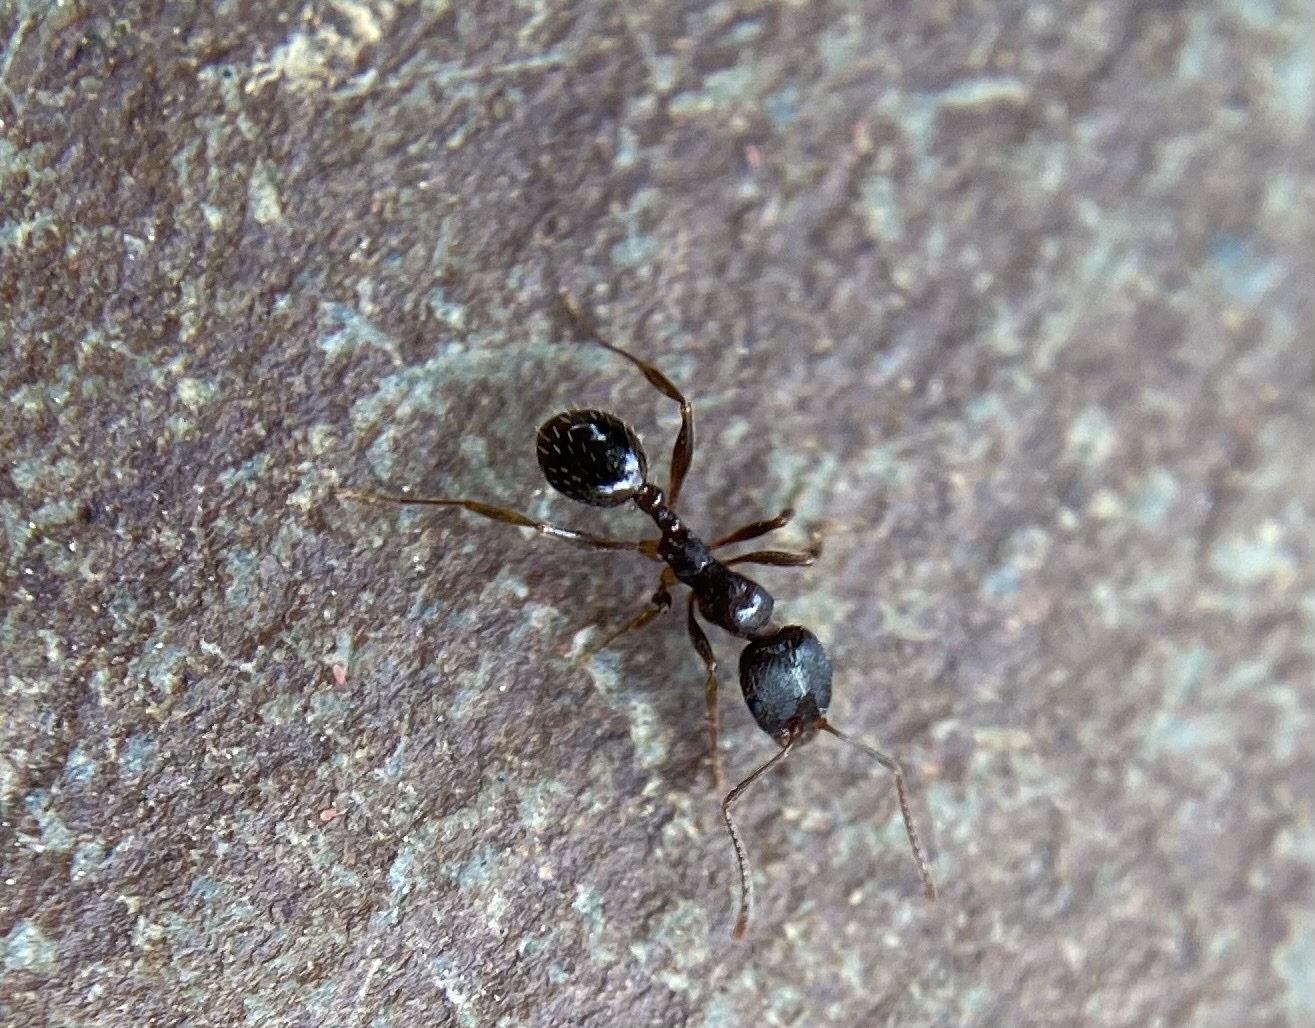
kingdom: Animalia
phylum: Arthropoda
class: Insecta
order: Hymenoptera
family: Formicidae
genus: Aphaenogaster
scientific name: Aphaenogaster occidentalis
